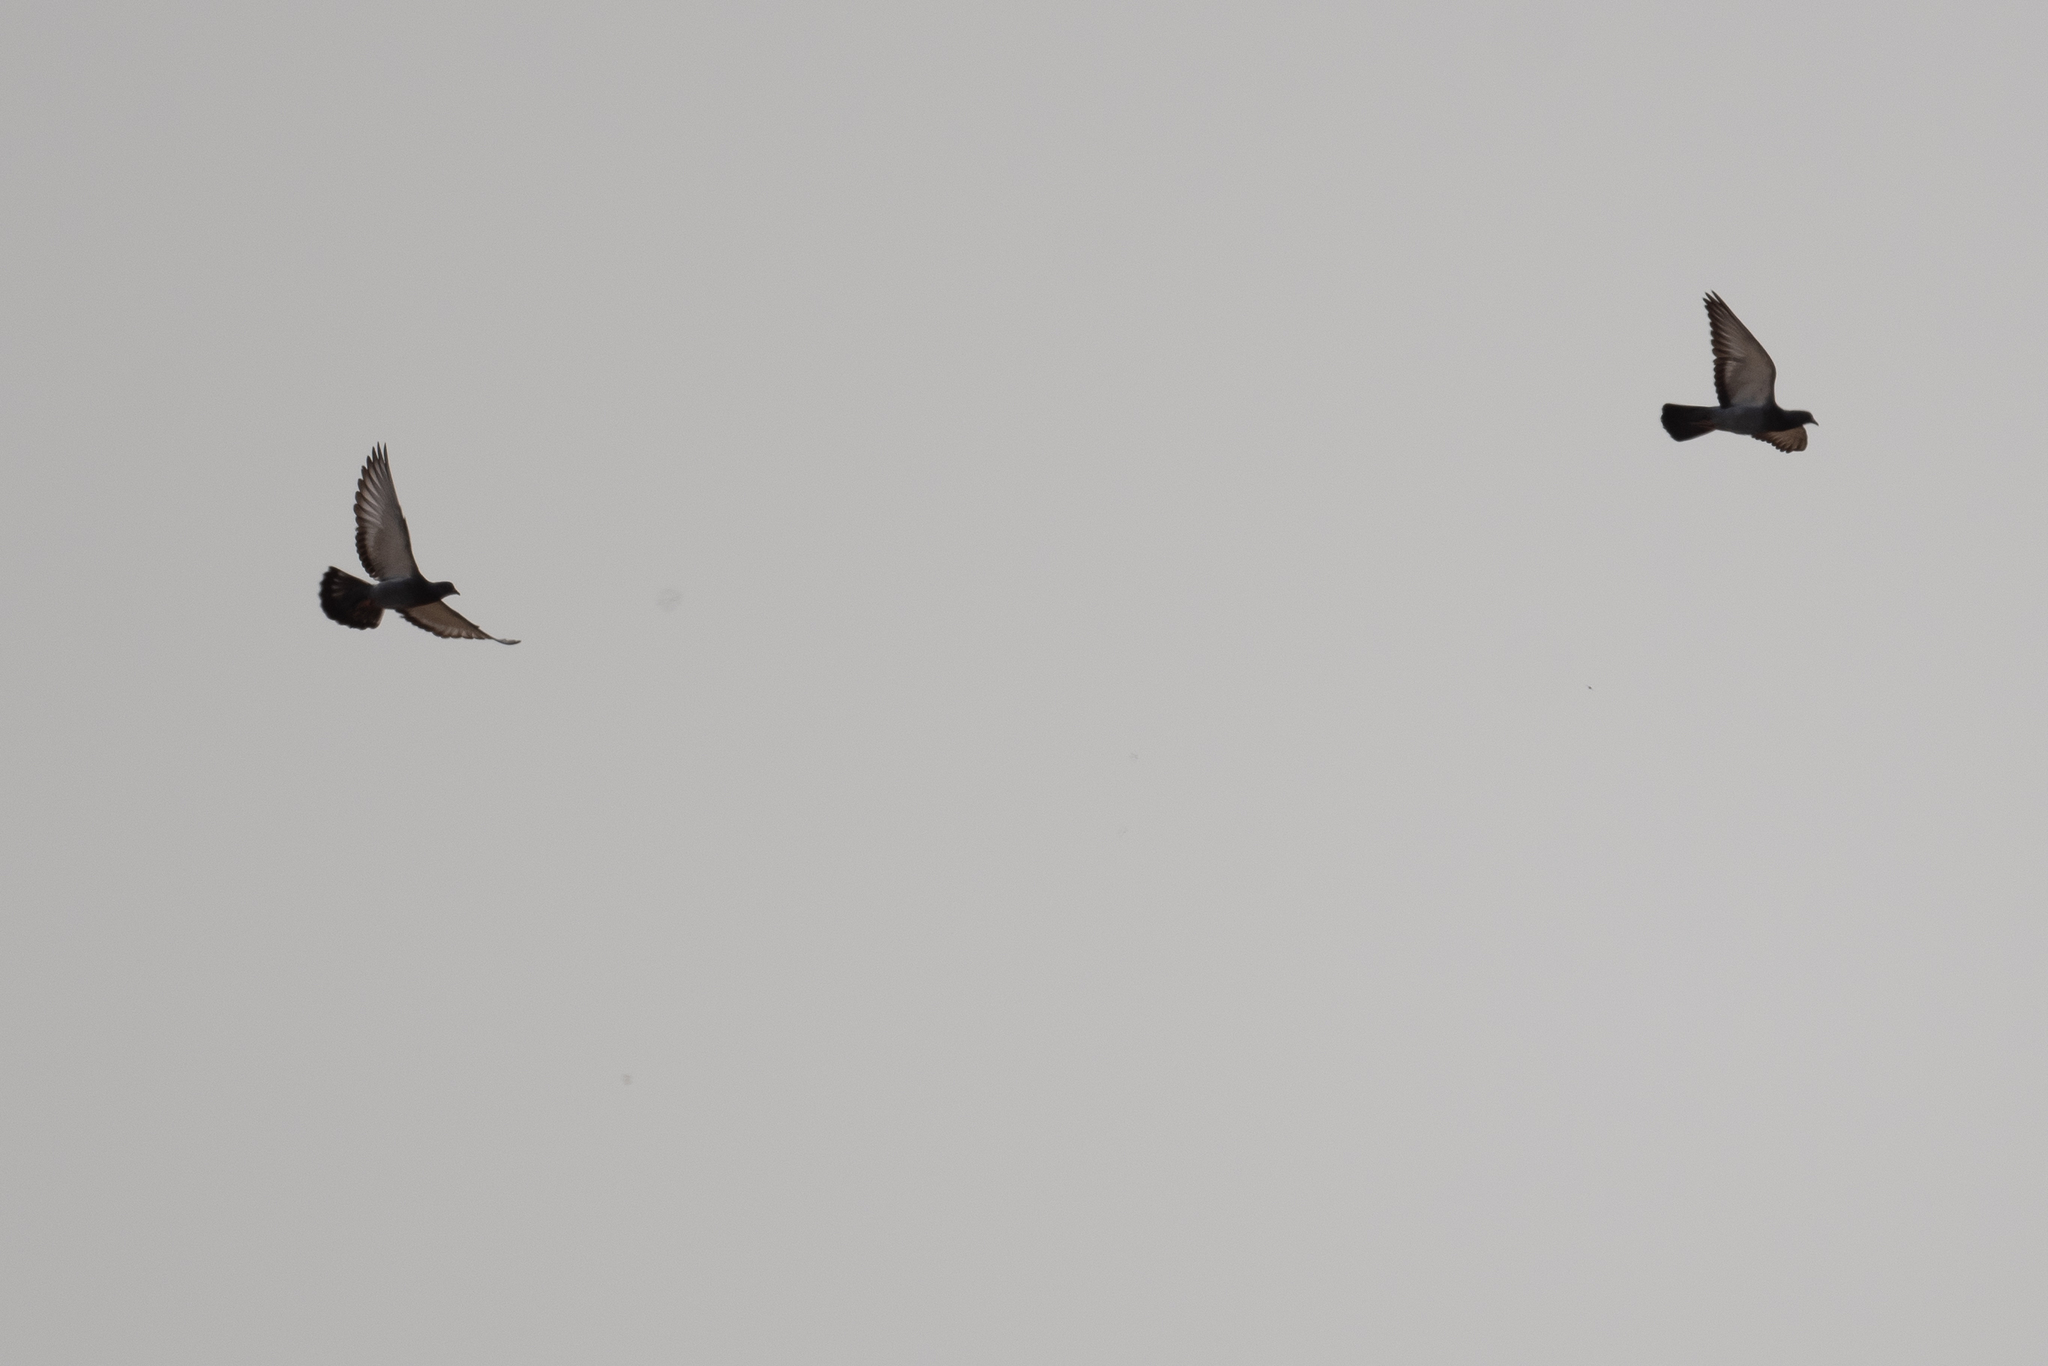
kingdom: Animalia
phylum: Chordata
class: Aves
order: Columbiformes
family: Columbidae
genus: Columba
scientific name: Columba livia
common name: Rock pigeon
